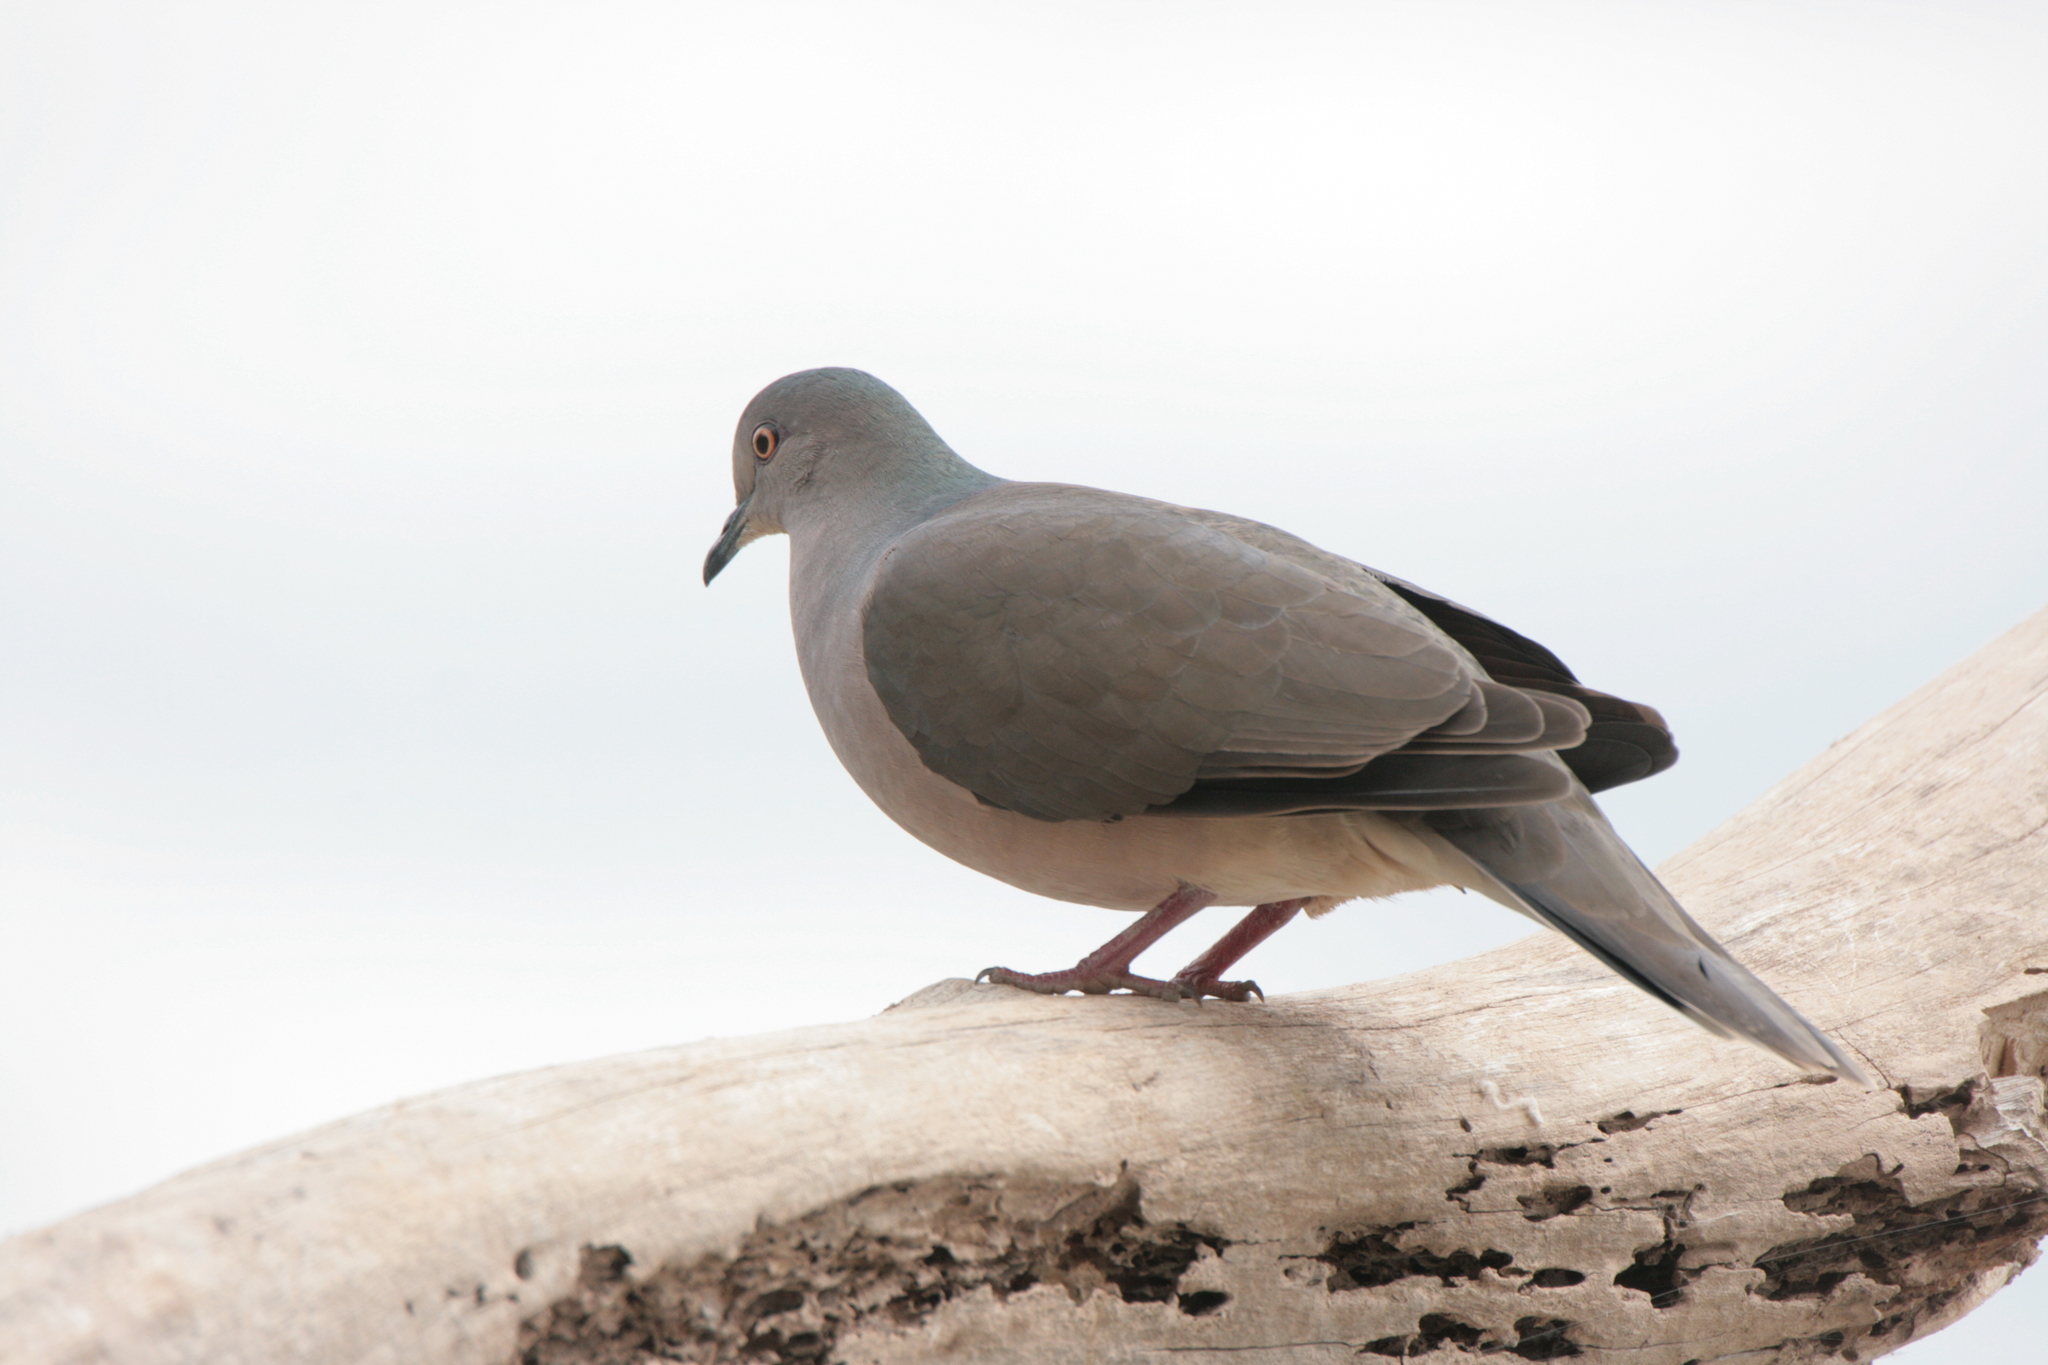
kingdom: Animalia
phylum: Chordata
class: Aves
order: Columbiformes
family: Columbidae
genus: Leptotila
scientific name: Leptotila verreauxi
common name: White-tipped dove
